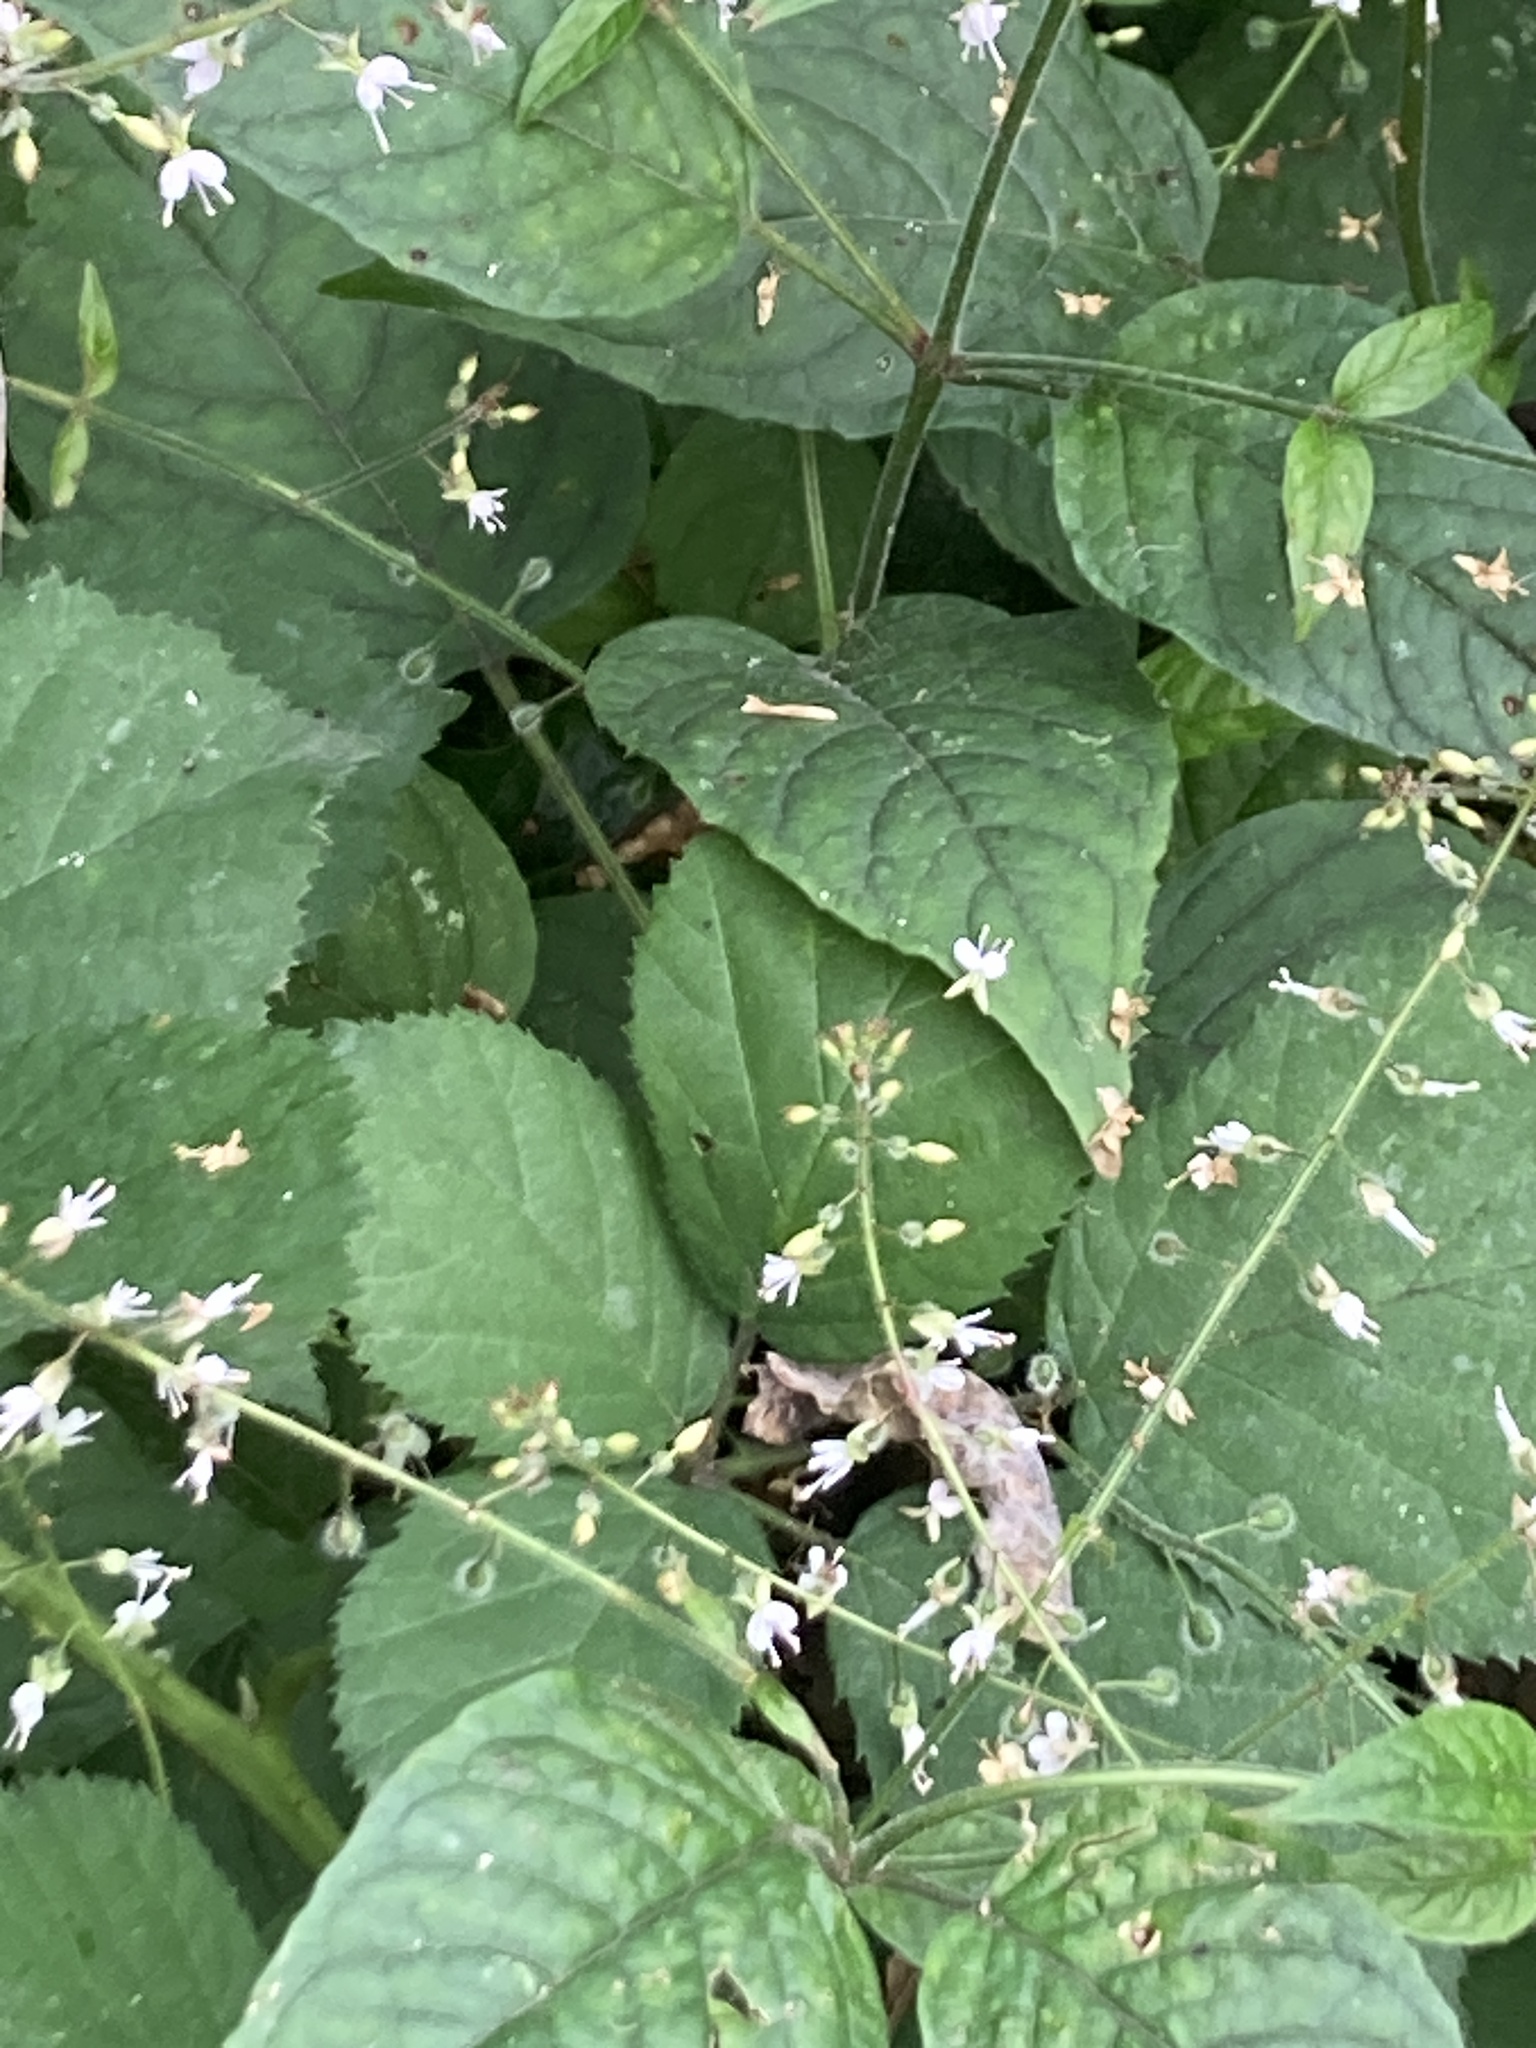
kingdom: Plantae
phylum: Tracheophyta
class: Magnoliopsida
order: Myrtales
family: Onagraceae
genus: Circaea
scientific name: Circaea lutetiana
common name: Enchanter's-nightshade
